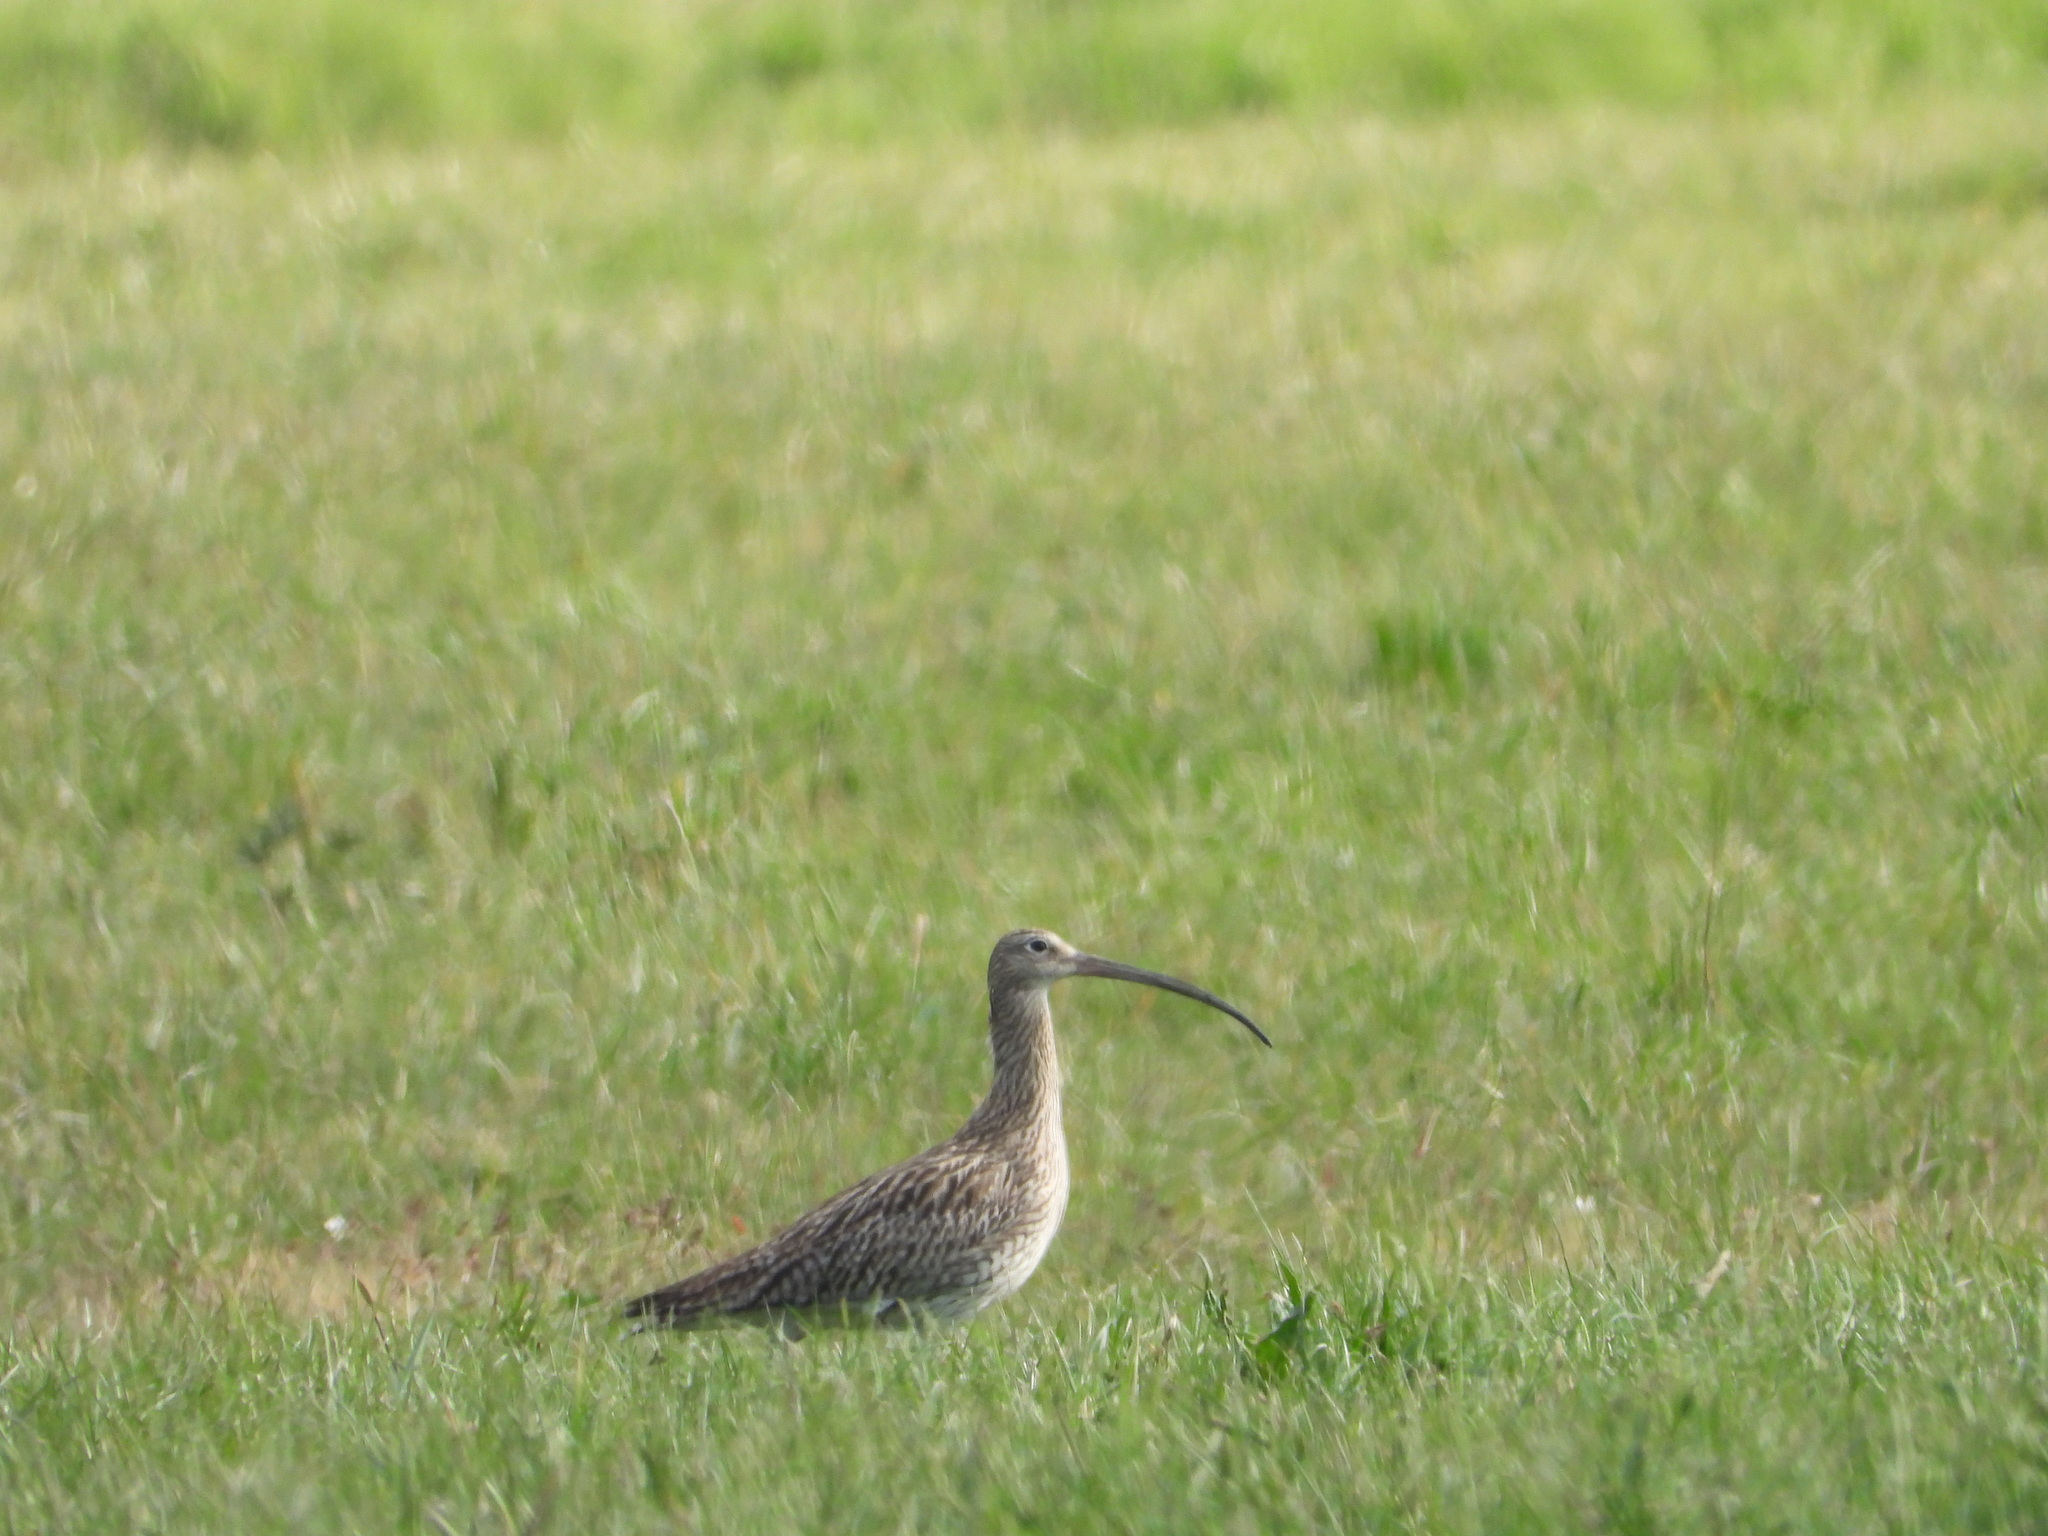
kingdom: Animalia
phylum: Chordata
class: Aves
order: Charadriiformes
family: Scolopacidae
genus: Numenius
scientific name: Numenius arquata
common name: Eurasian curlew
